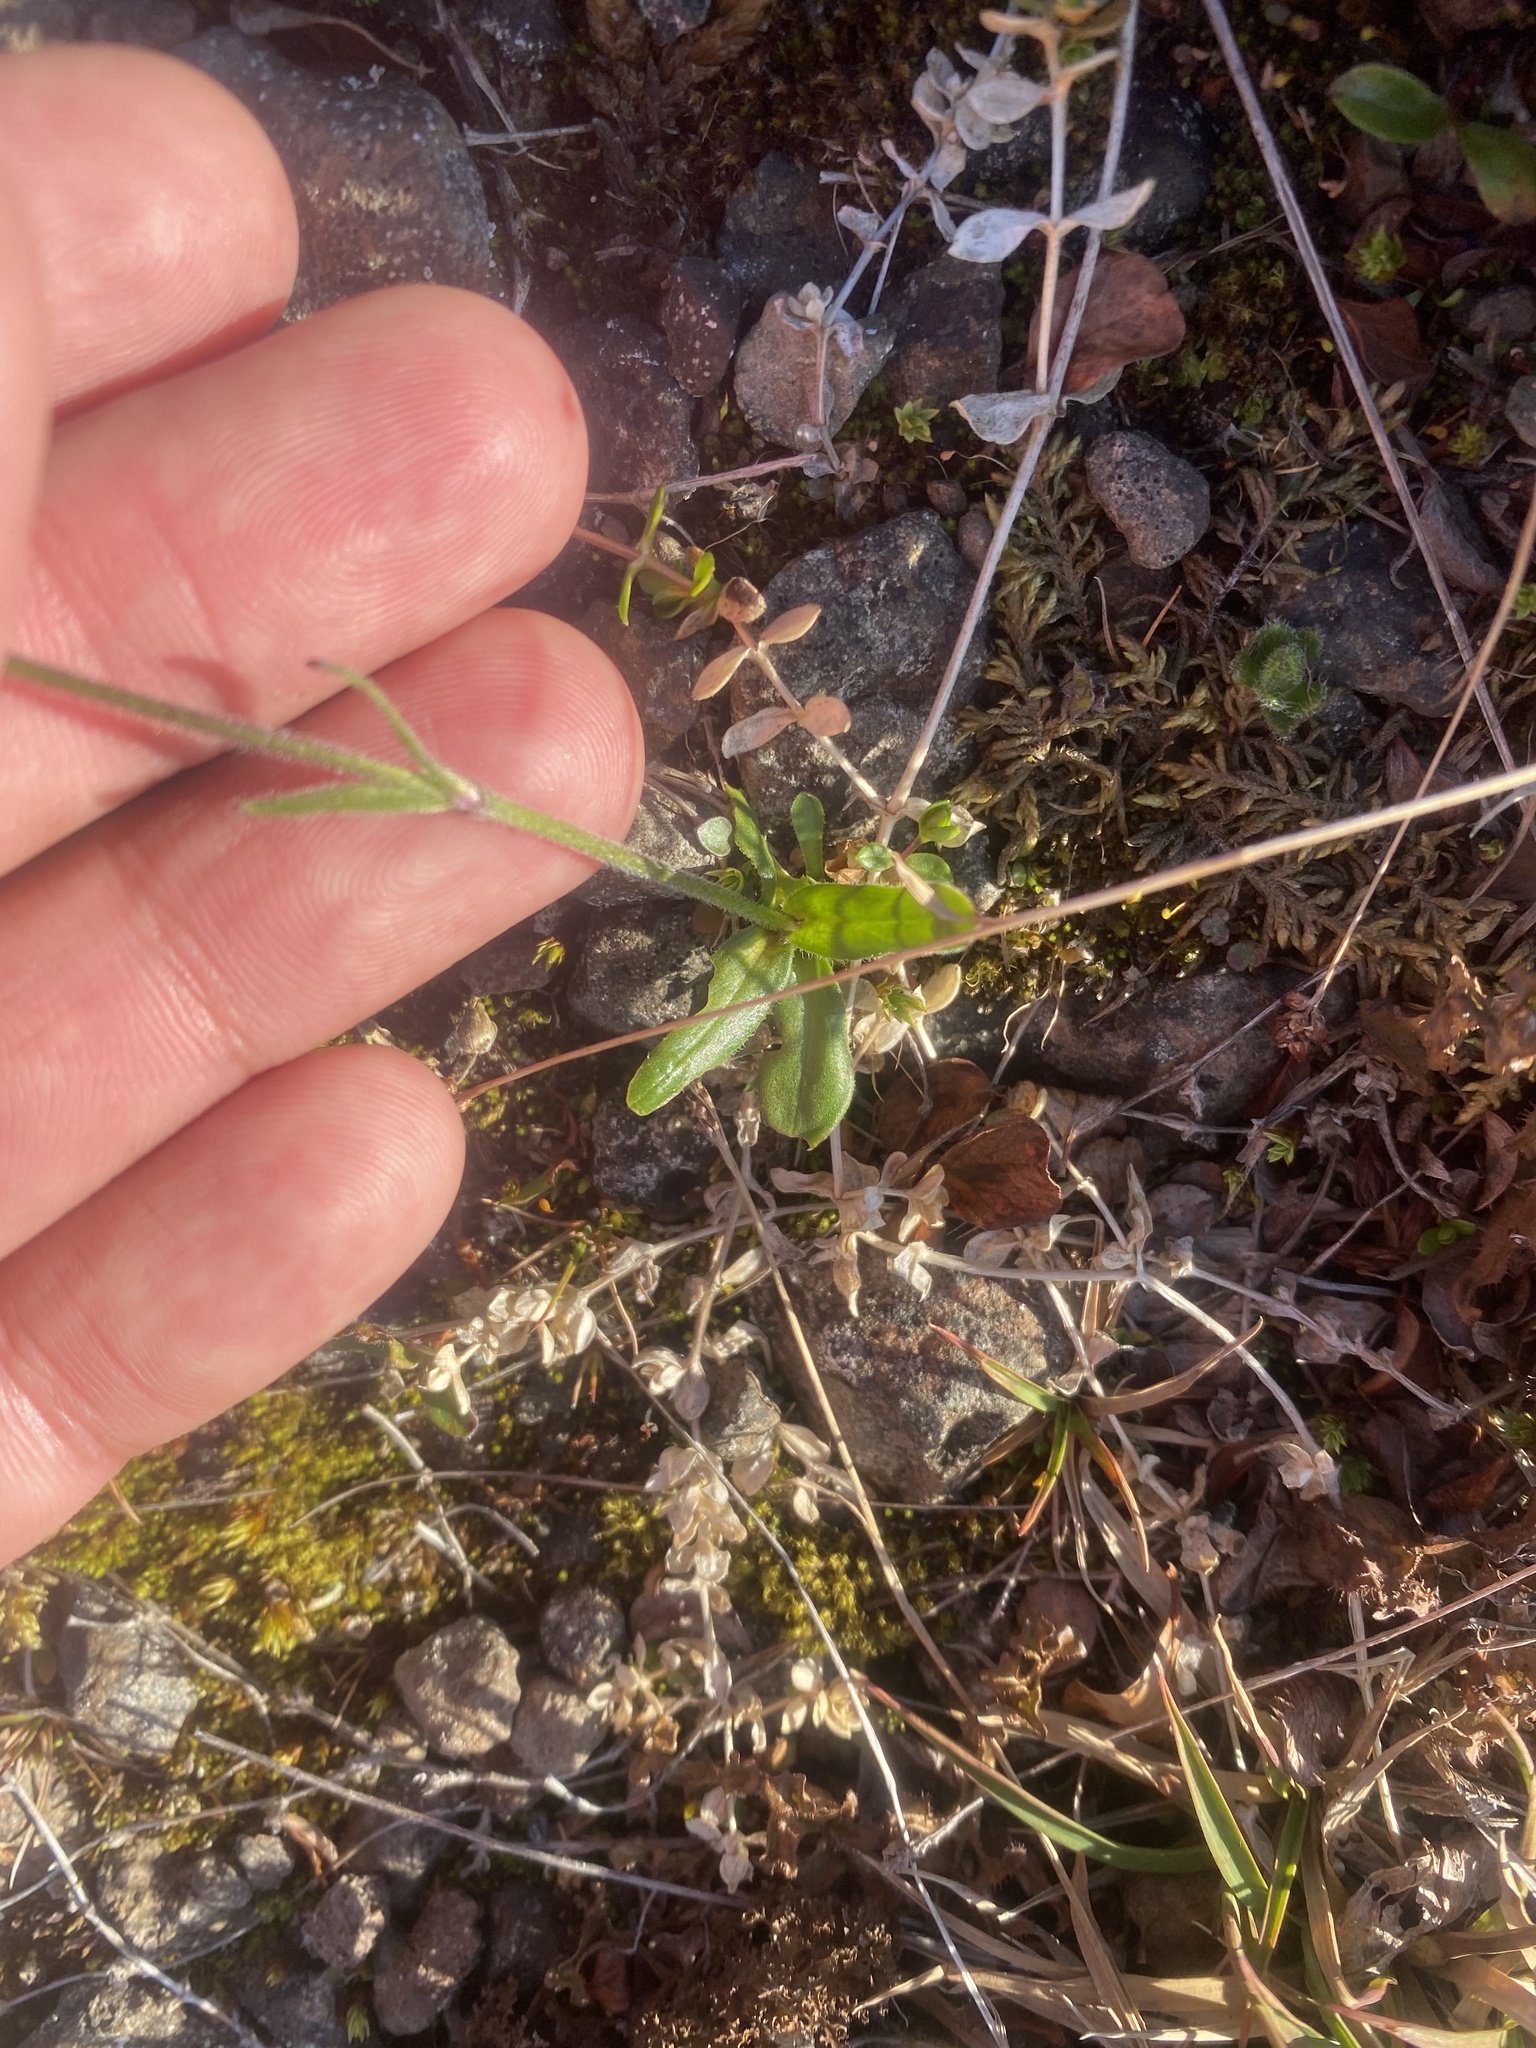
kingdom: Plantae
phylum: Tracheophyta
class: Magnoliopsida
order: Caryophyllales
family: Caryophyllaceae
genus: Silene
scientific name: Silene wahlbergella
